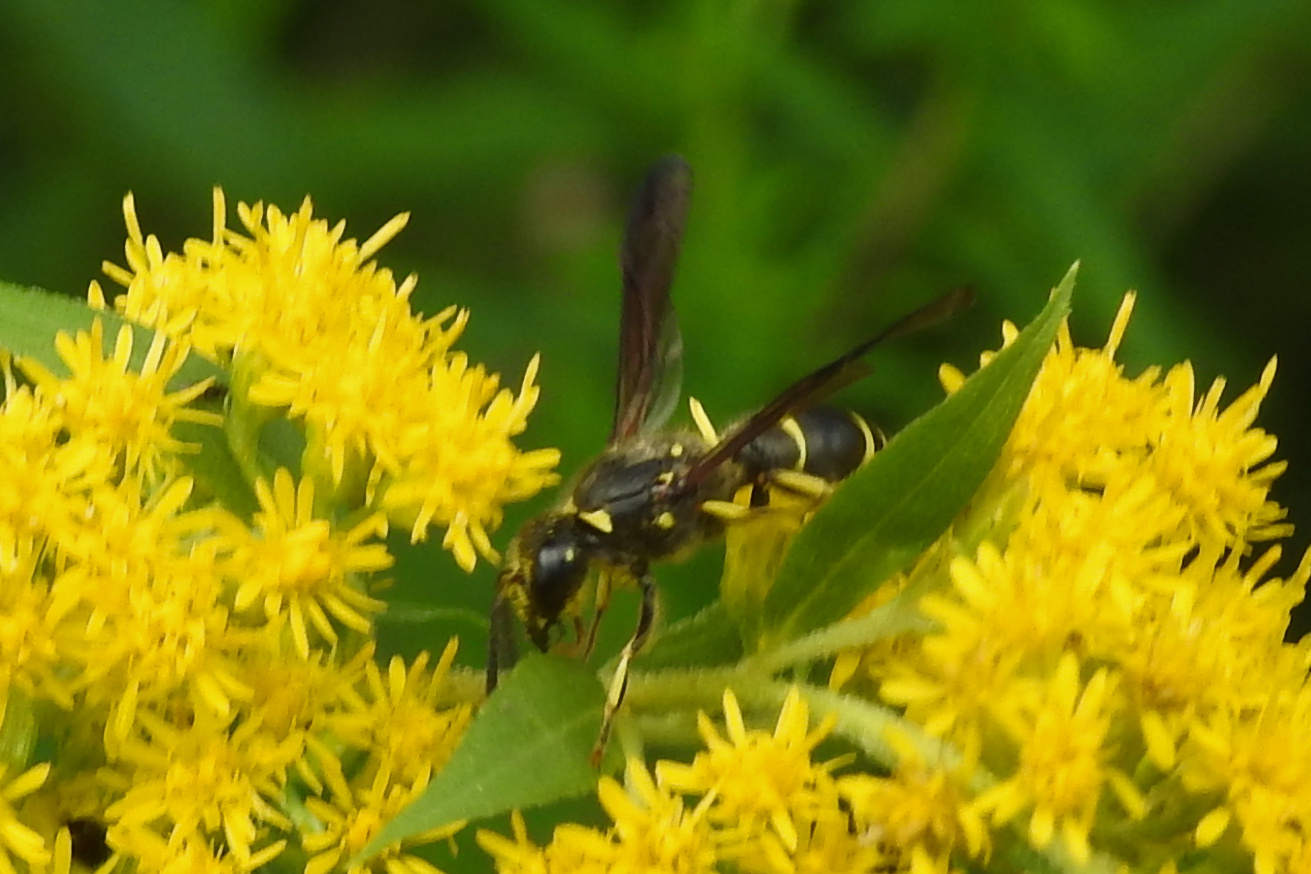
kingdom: Animalia
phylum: Arthropoda
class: Insecta
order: Hymenoptera
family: Vespidae
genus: Ancistrocerus
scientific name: Ancistrocerus
